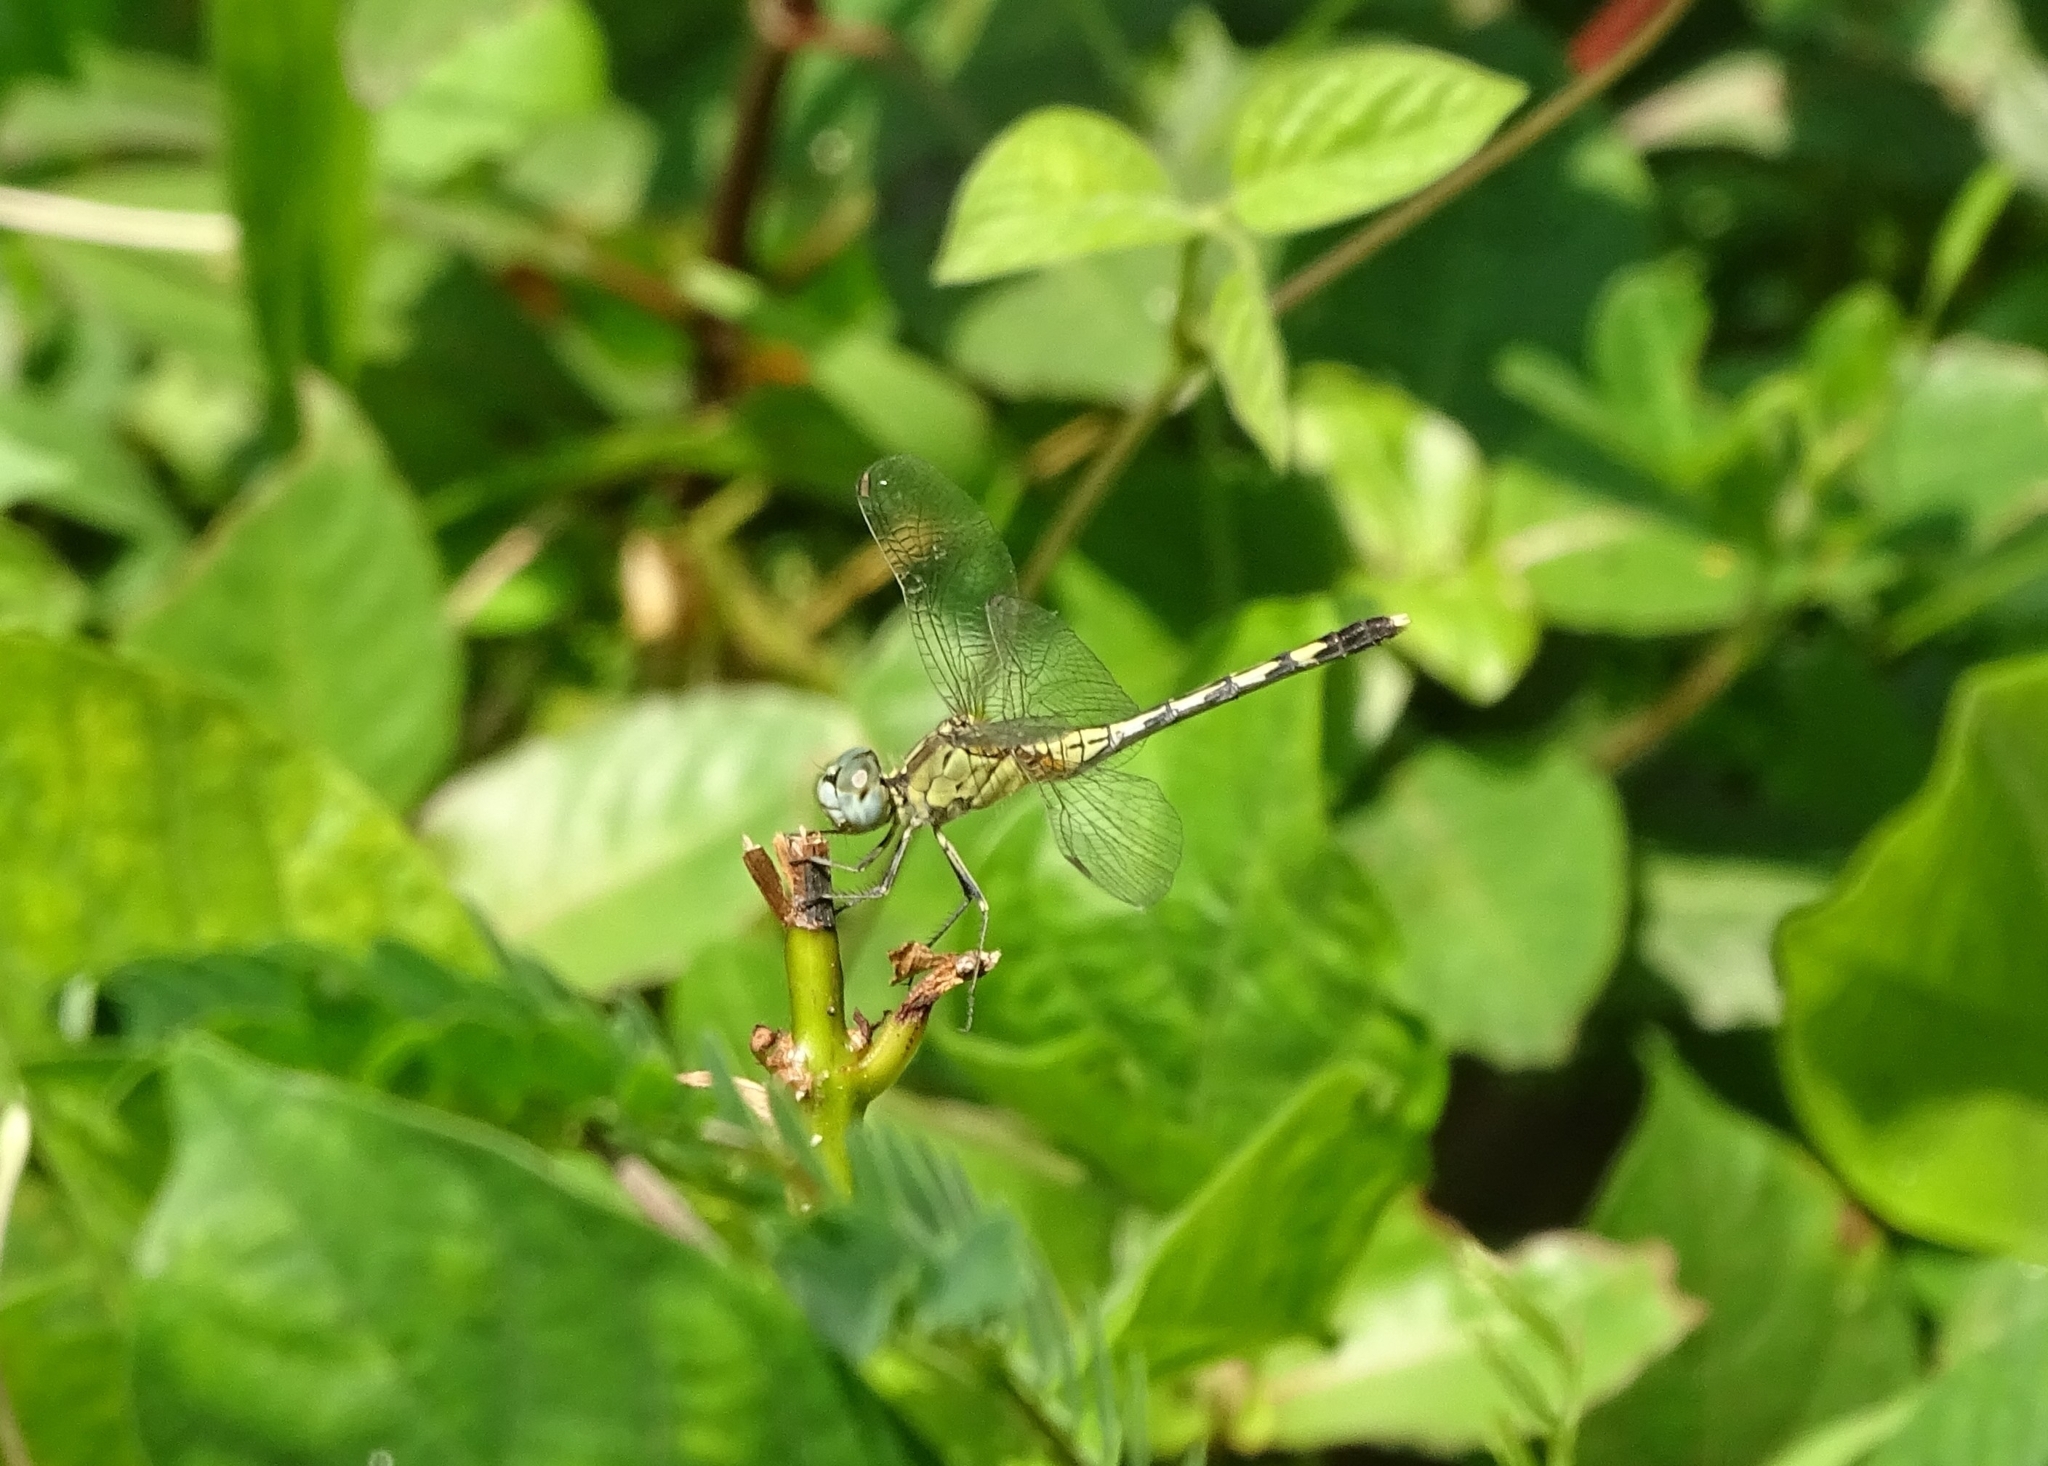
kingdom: Animalia
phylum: Arthropoda
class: Insecta
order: Odonata
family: Libellulidae
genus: Diplacodes
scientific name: Diplacodes trivialis
